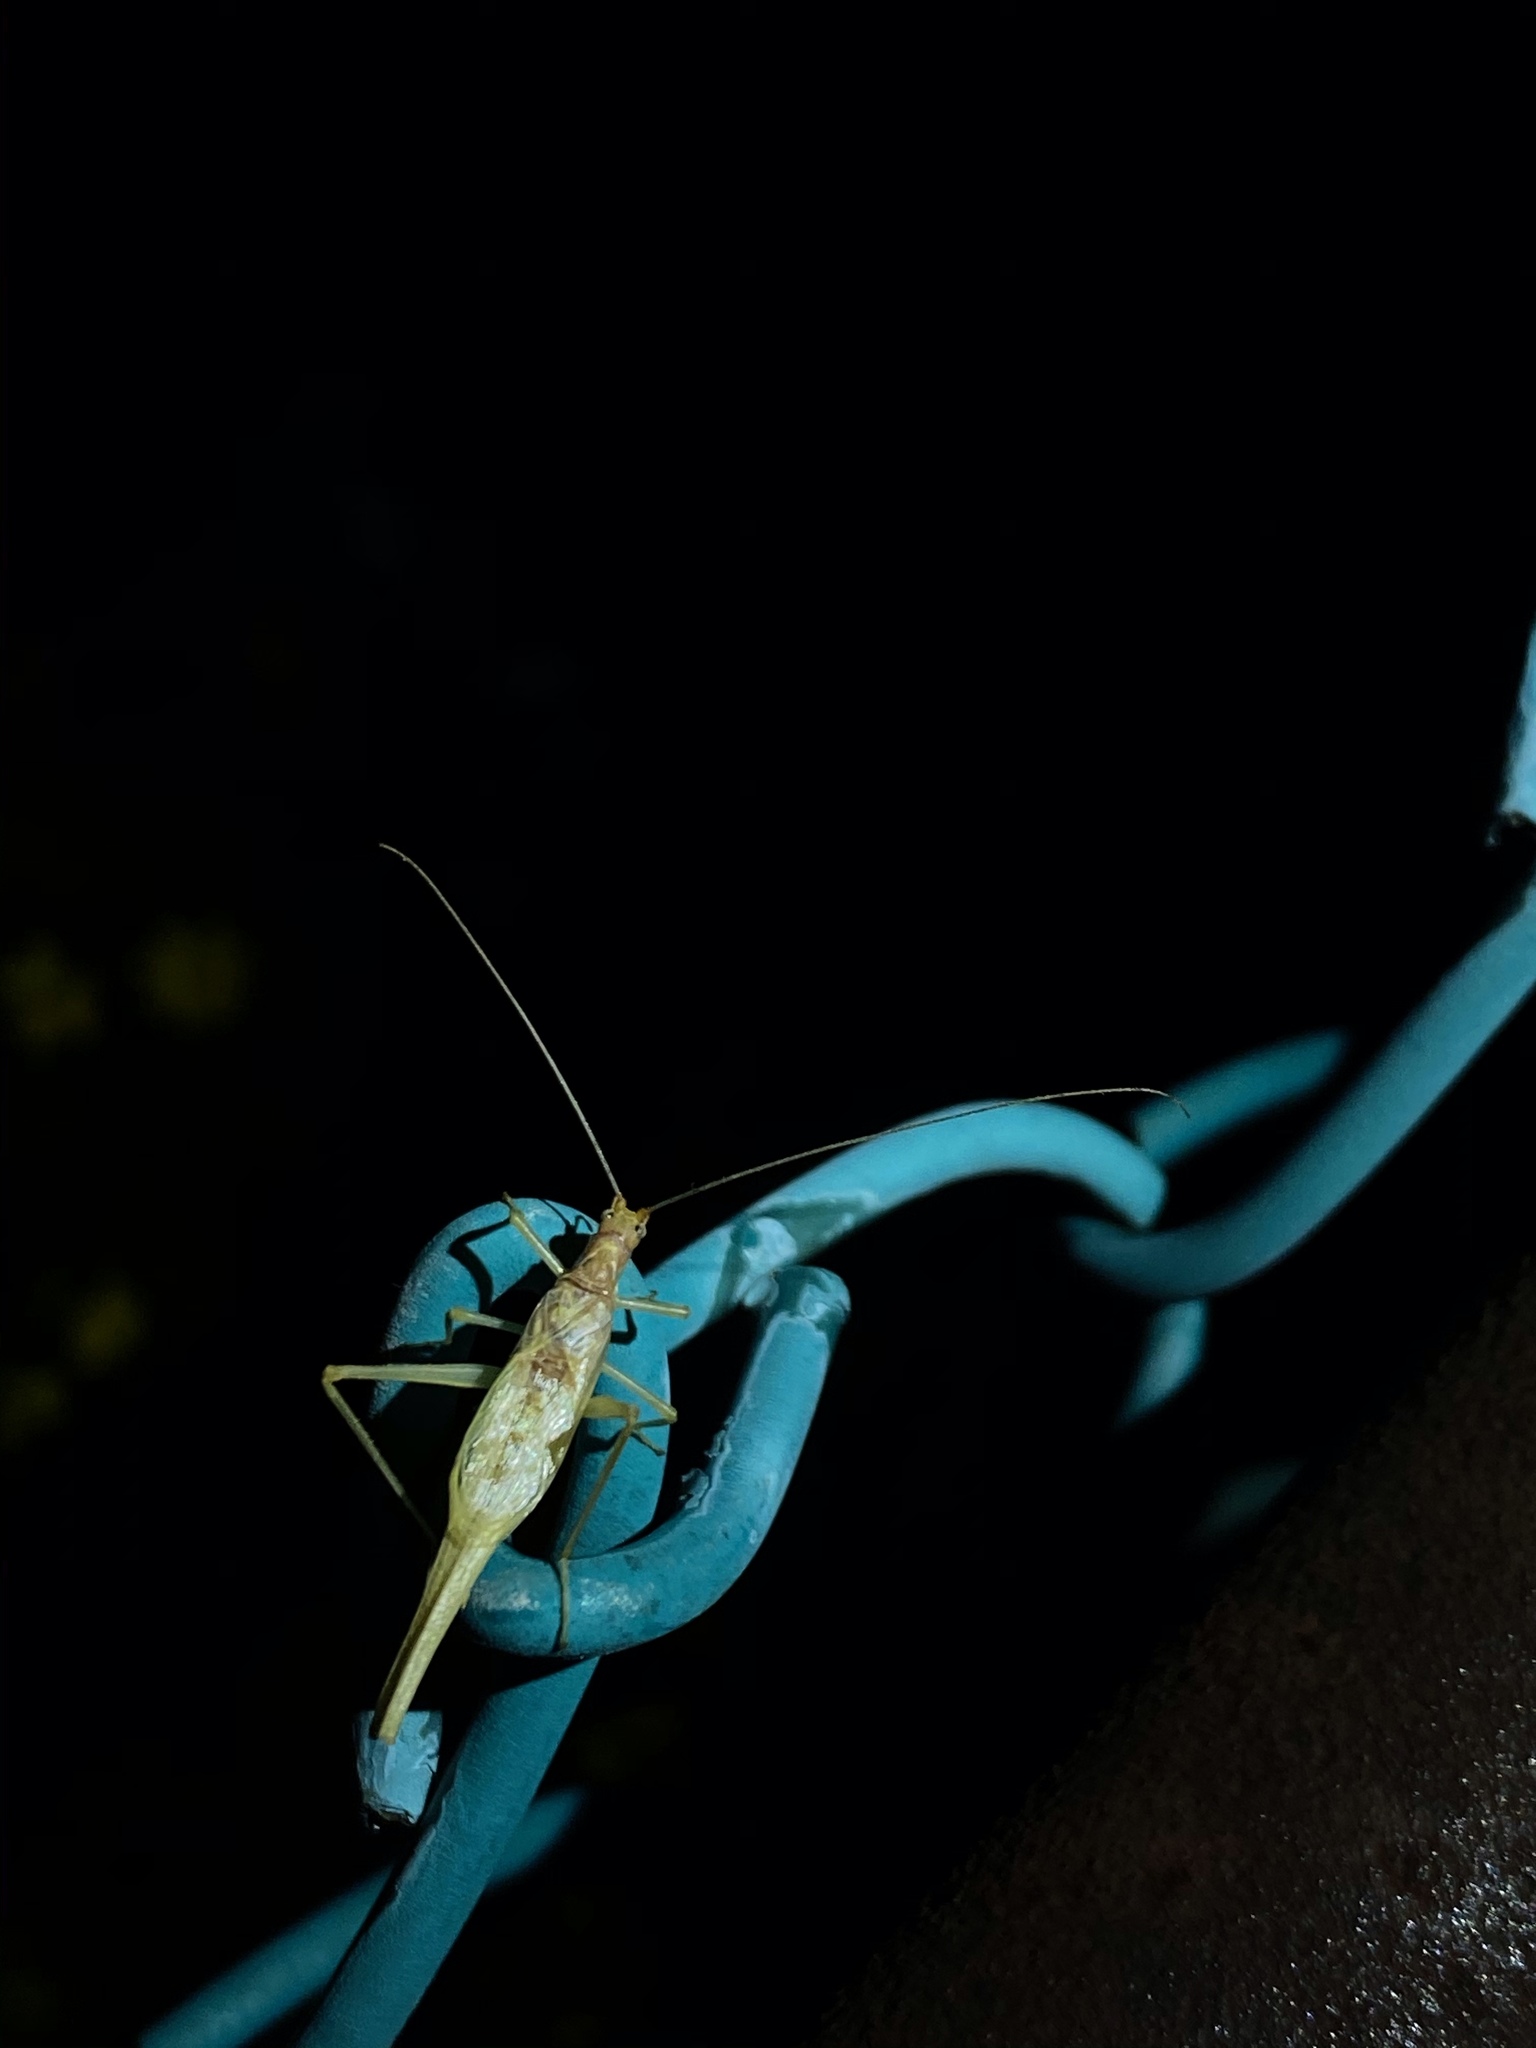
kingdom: Animalia
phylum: Arthropoda
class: Insecta
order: Orthoptera
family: Gryllidae
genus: Neoxabea
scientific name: Neoxabea bipunctata
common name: Two-spotted tree cricket
